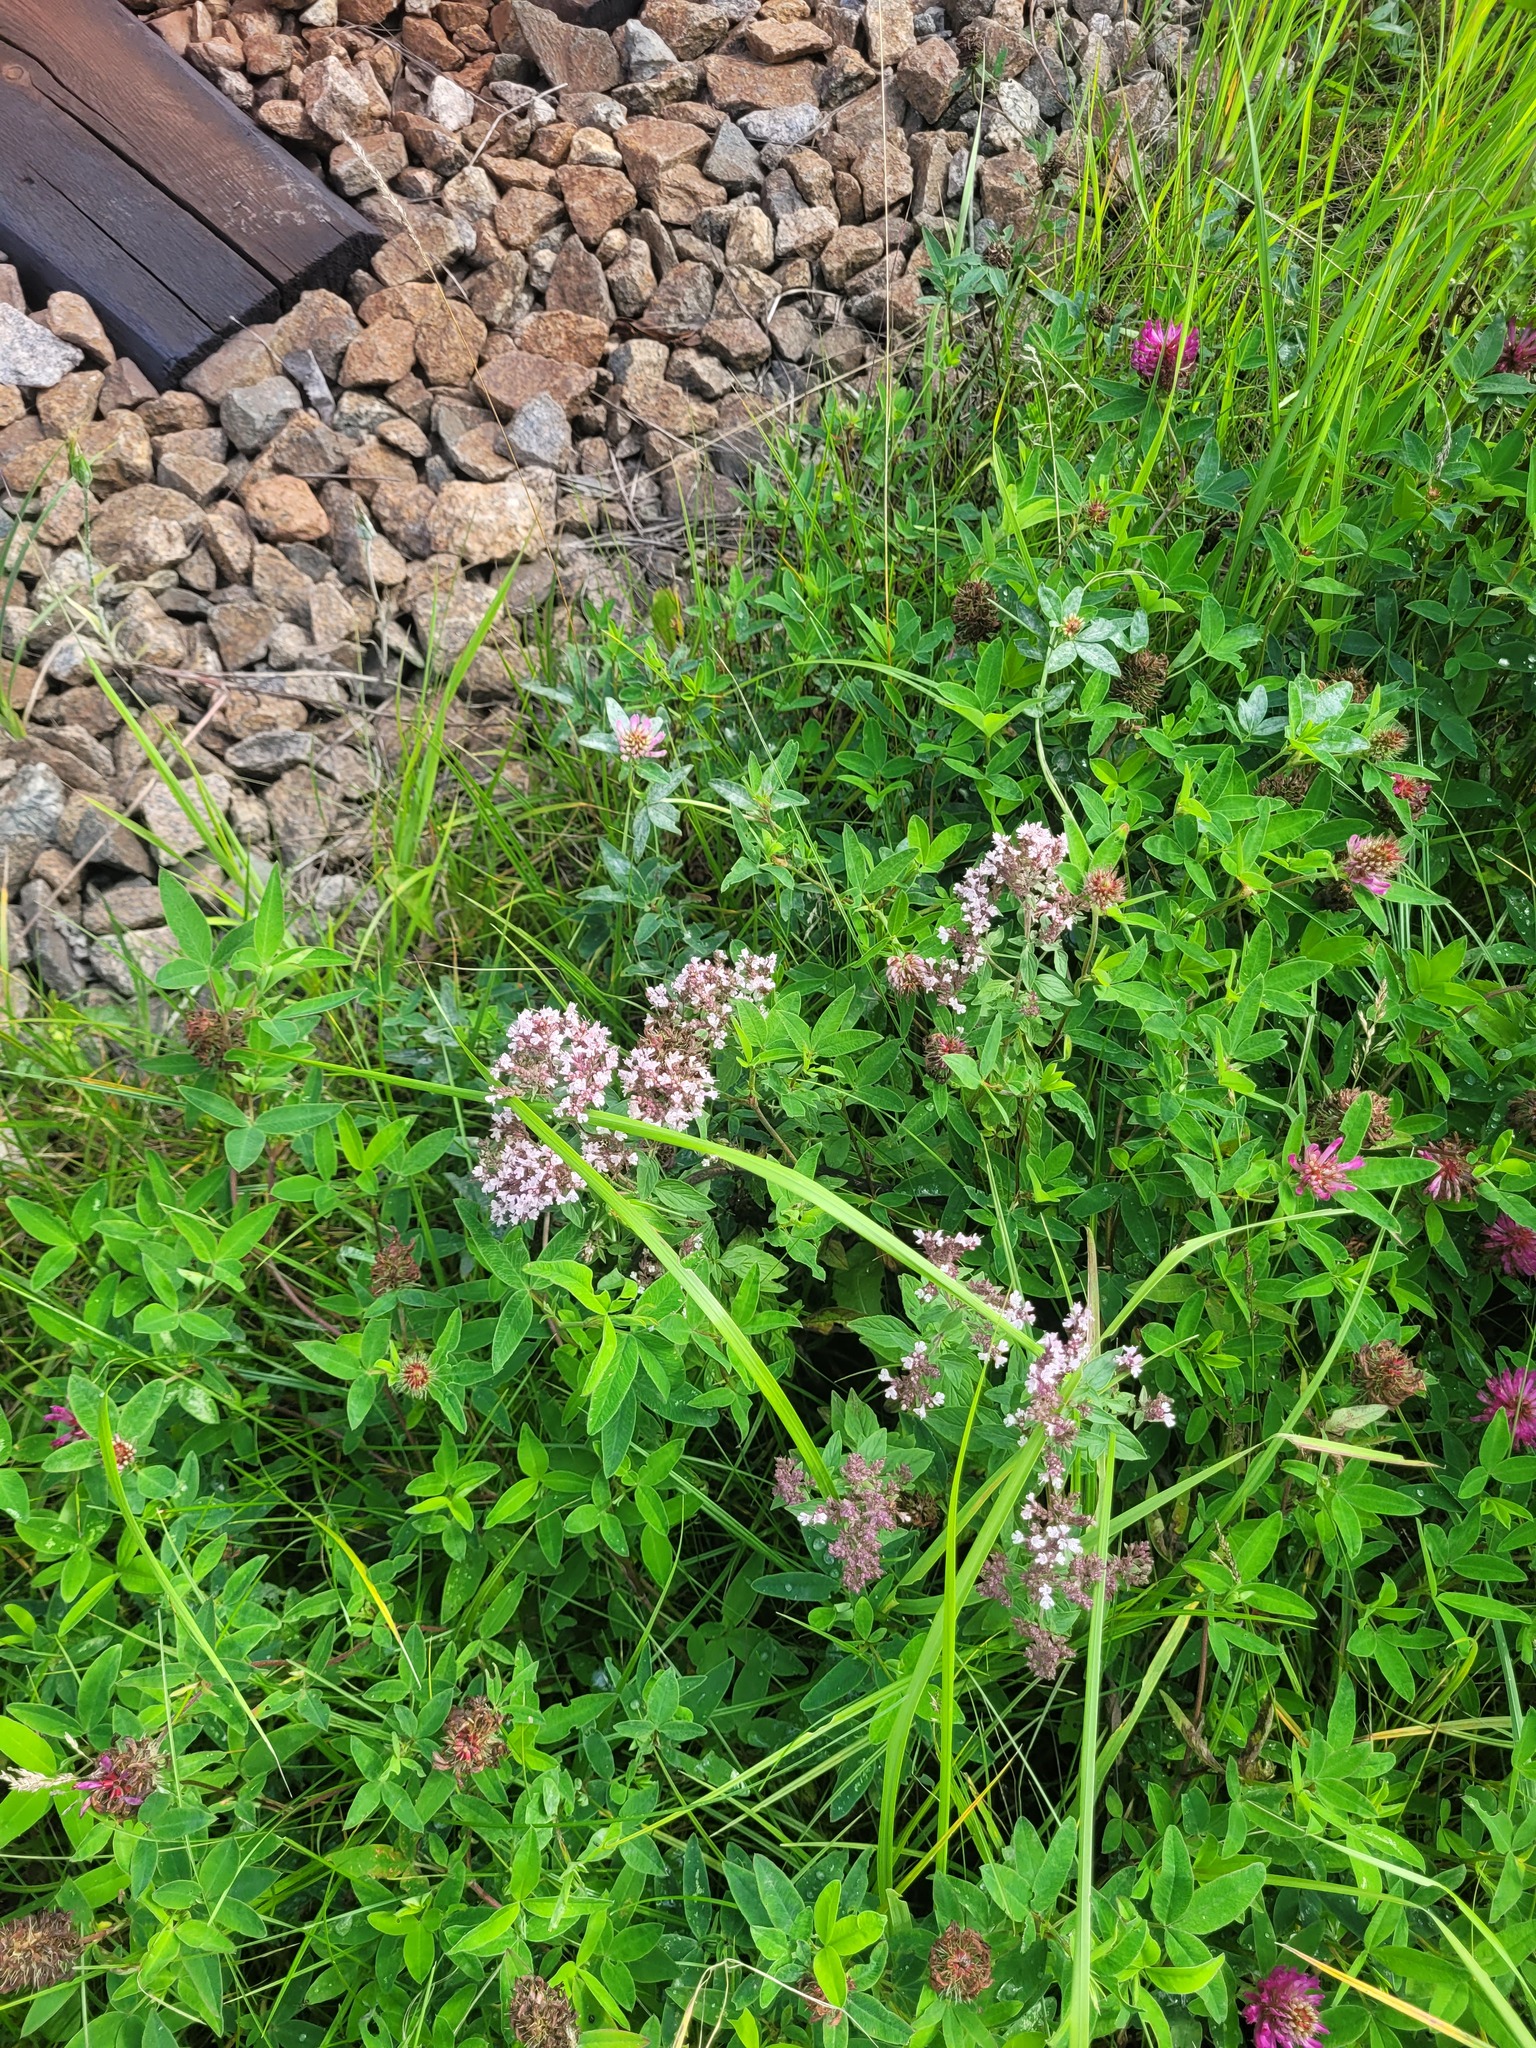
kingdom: Plantae
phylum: Tracheophyta
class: Magnoliopsida
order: Lamiales
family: Lamiaceae
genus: Origanum
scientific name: Origanum vulgare
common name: Wild marjoram
